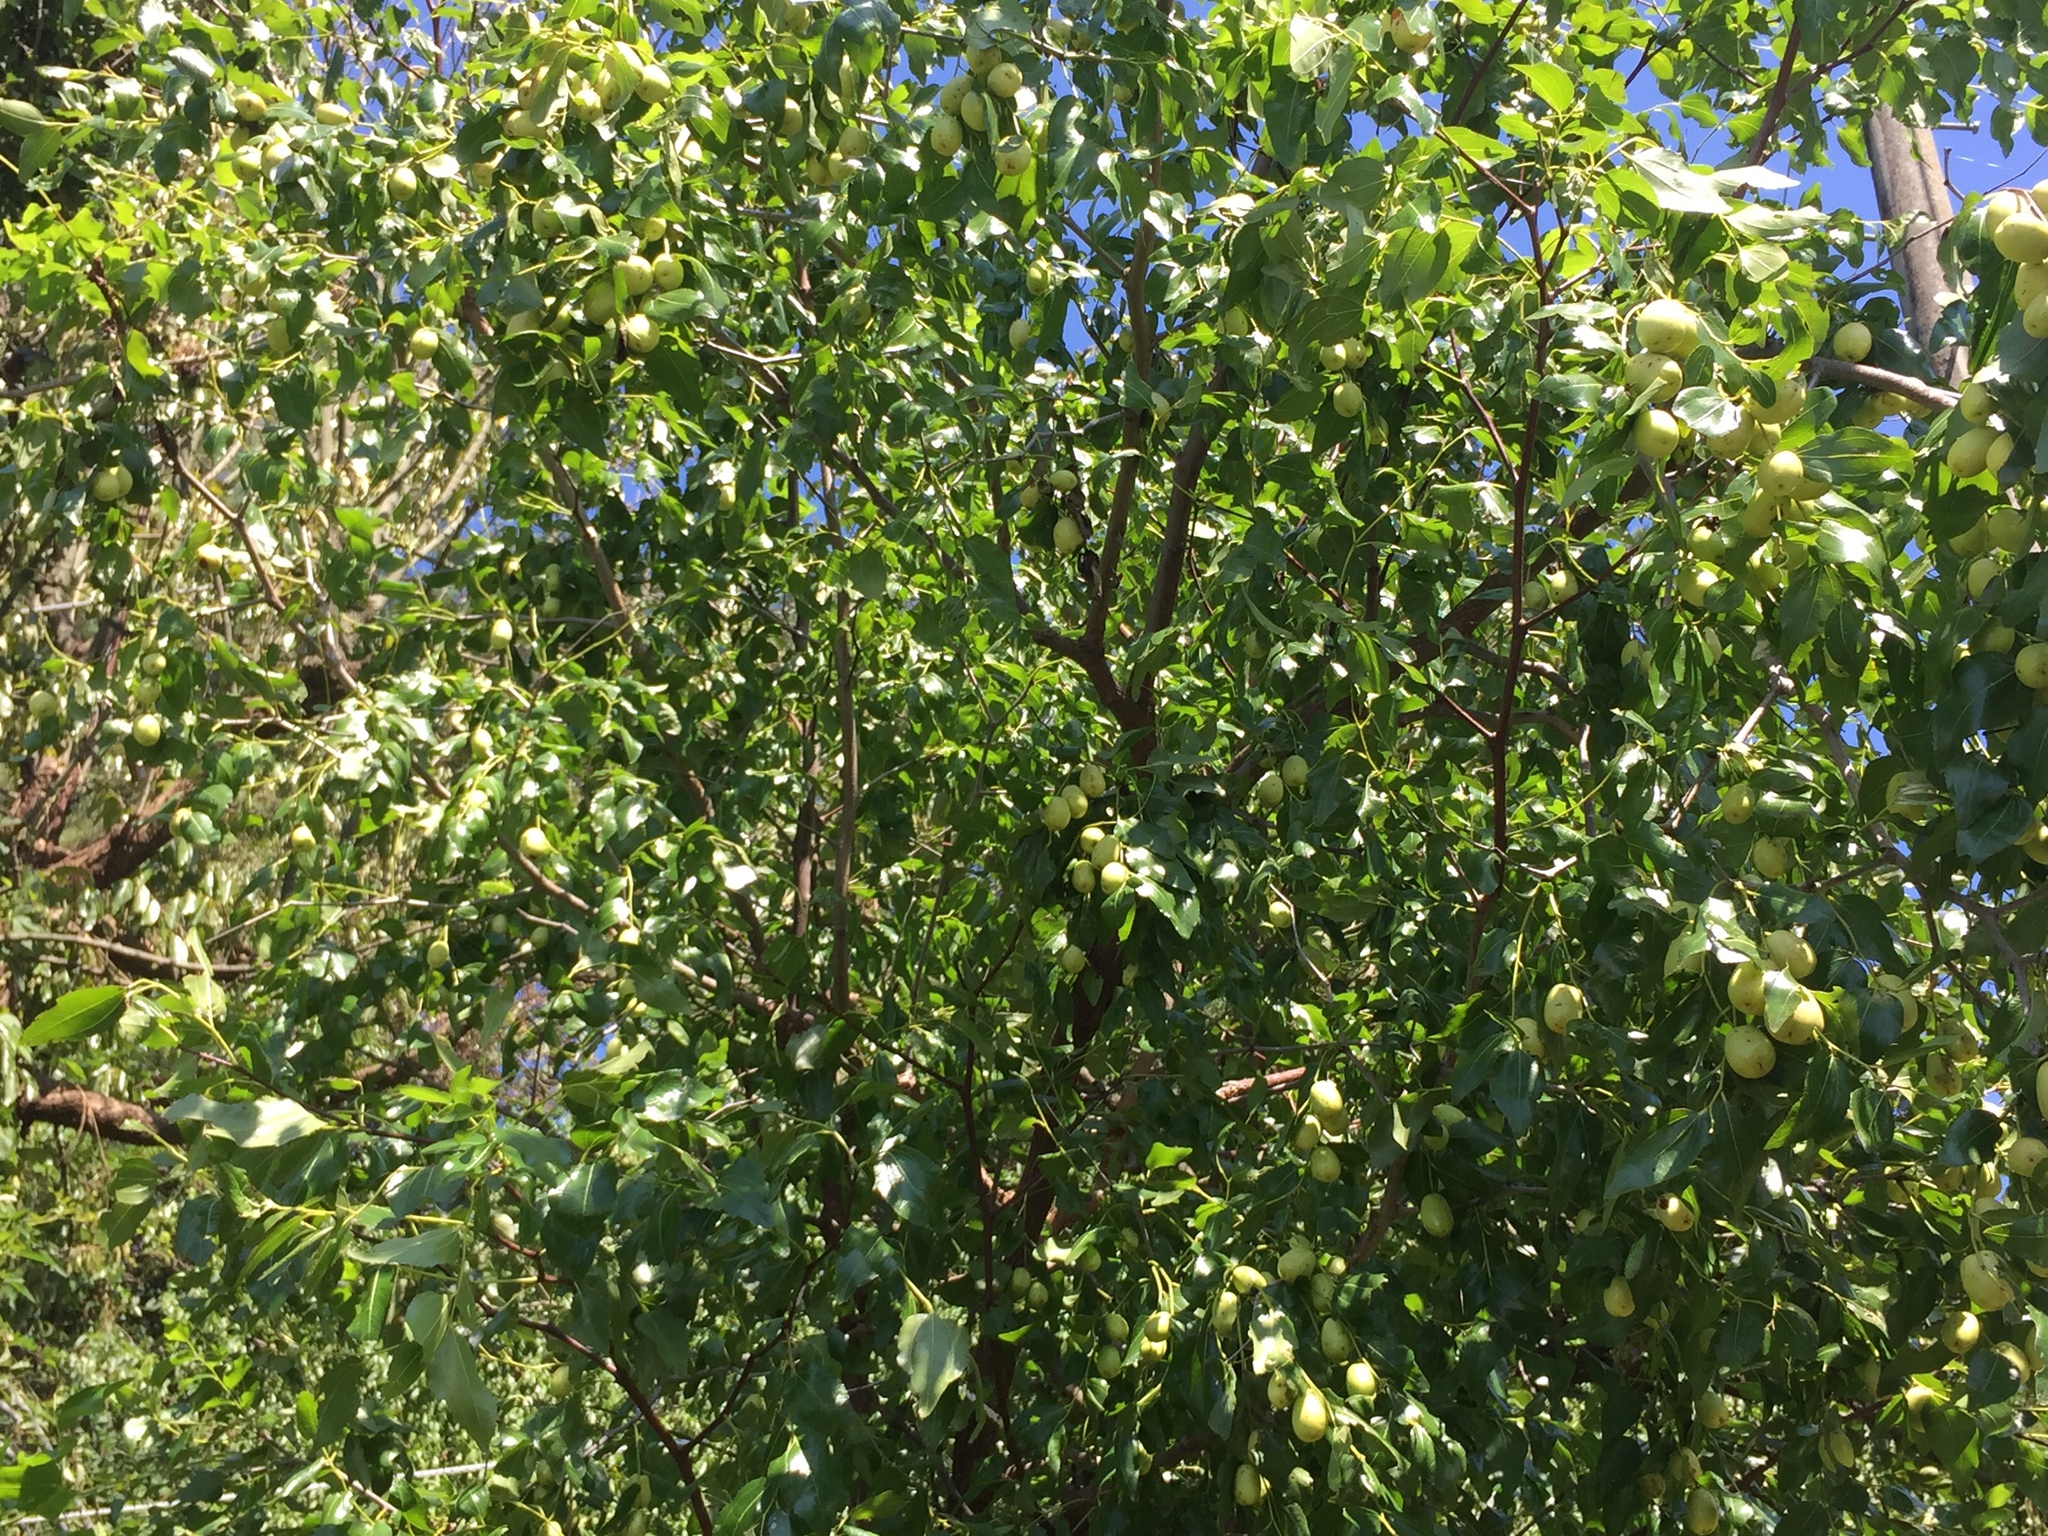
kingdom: Plantae
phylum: Tracheophyta
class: Magnoliopsida
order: Rosales
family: Rhamnaceae
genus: Ziziphus
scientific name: Ziziphus jujuba
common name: Jujube red date
